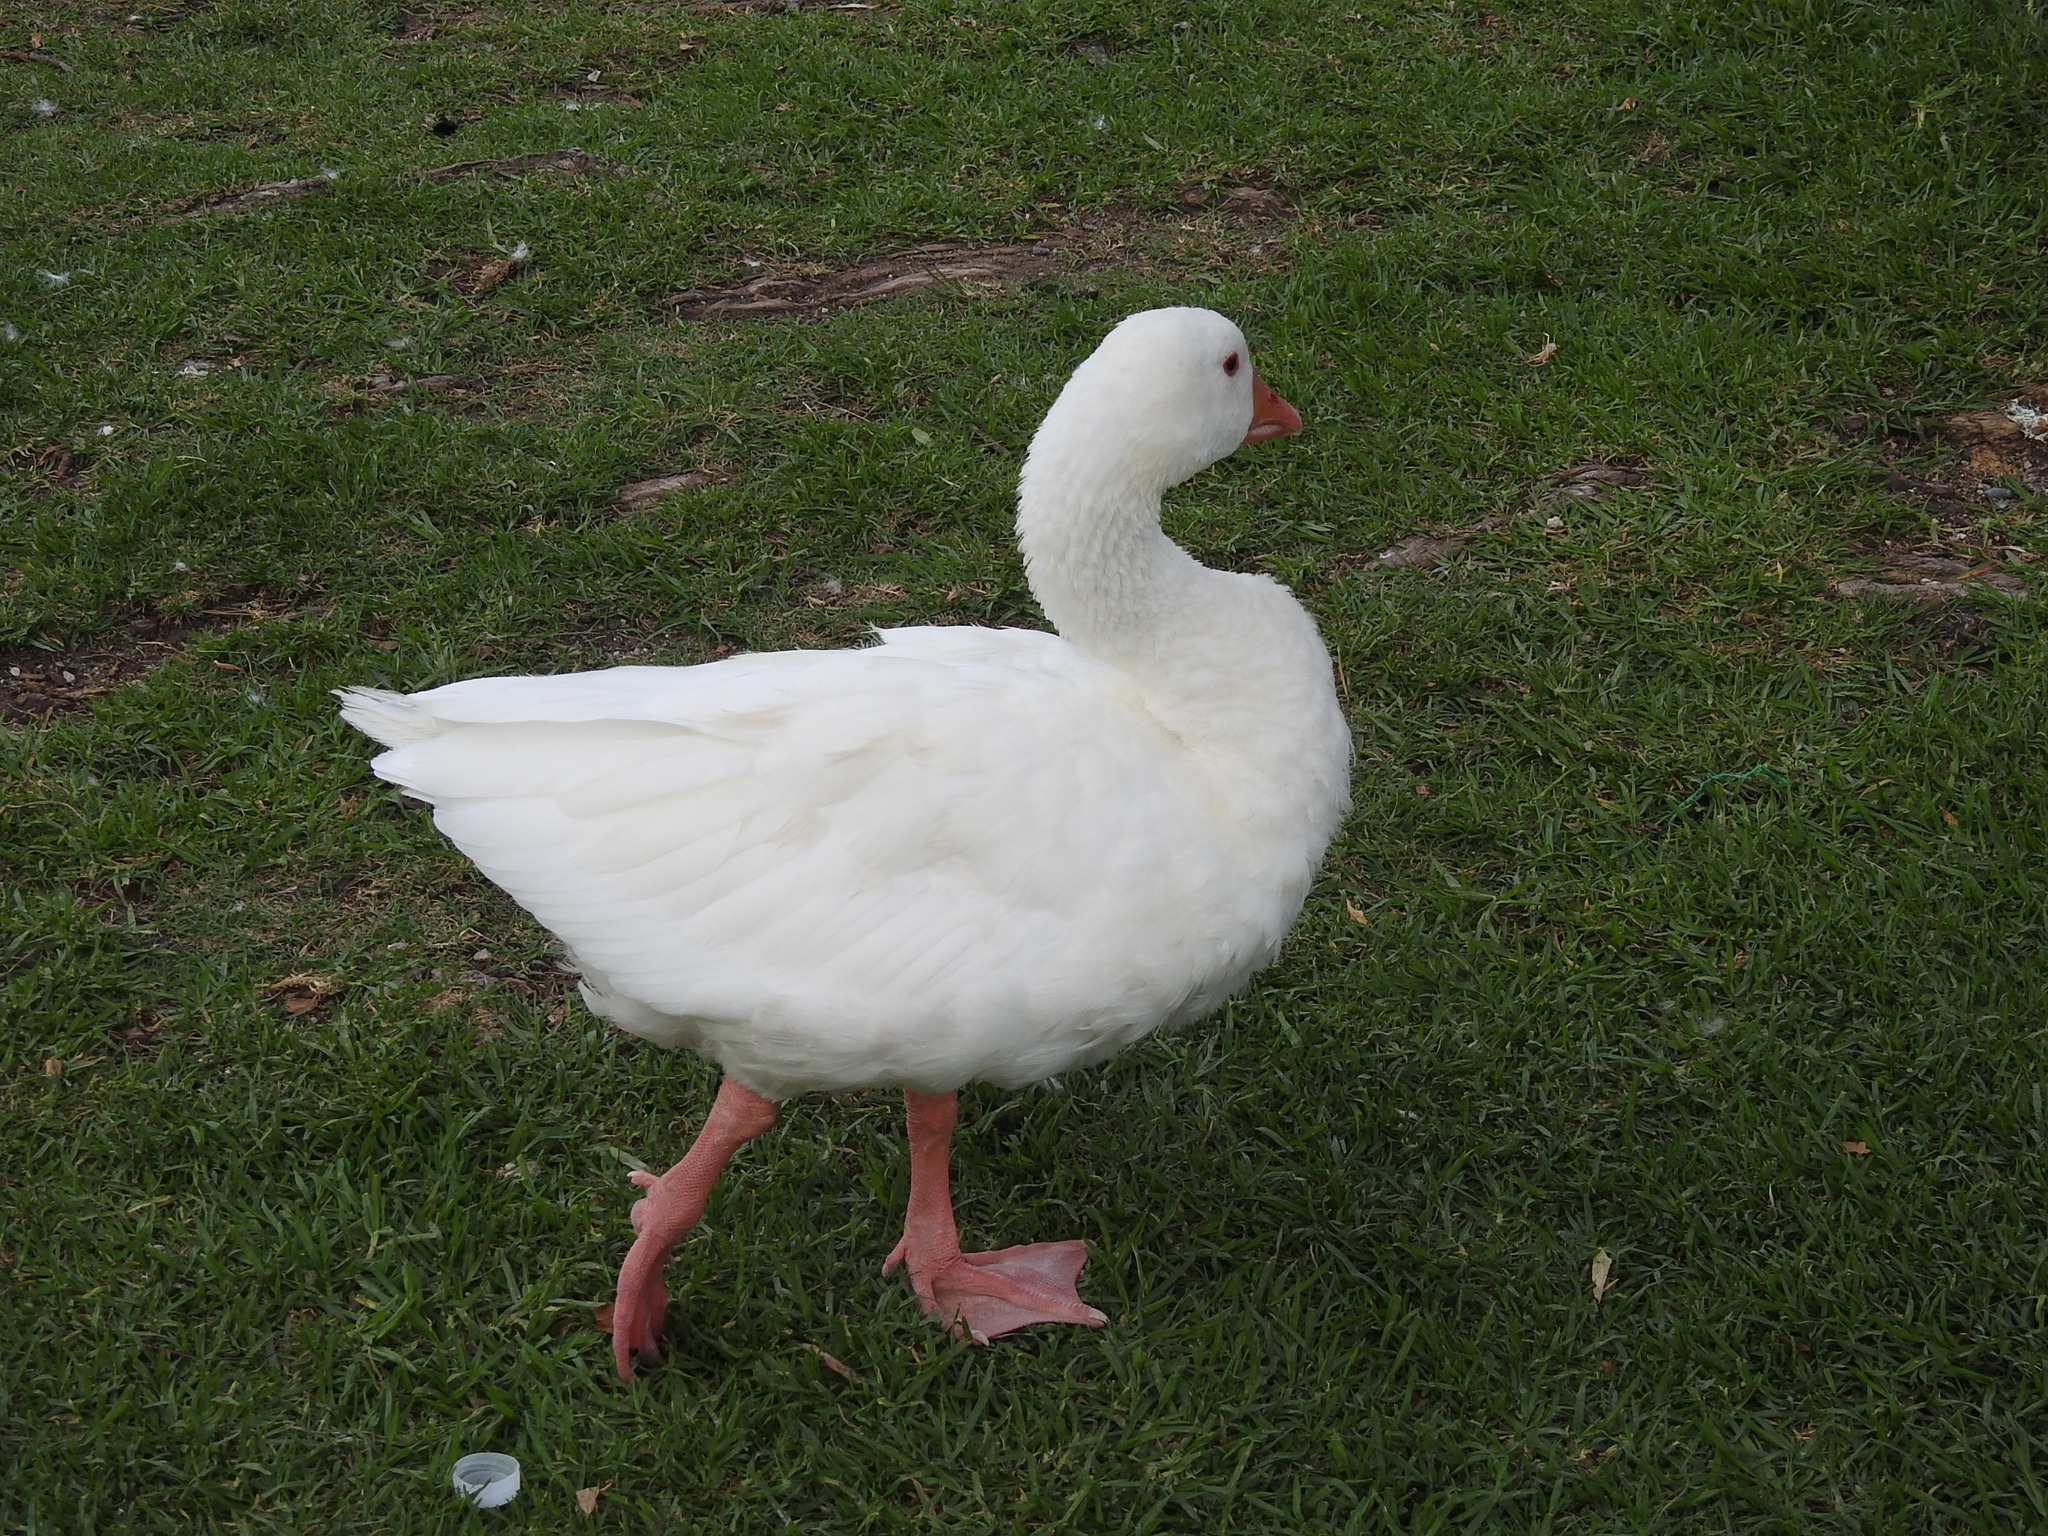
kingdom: Animalia
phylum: Chordata
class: Aves
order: Anseriformes
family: Anatidae
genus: Anser
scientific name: Anser anser
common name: Greylag goose
